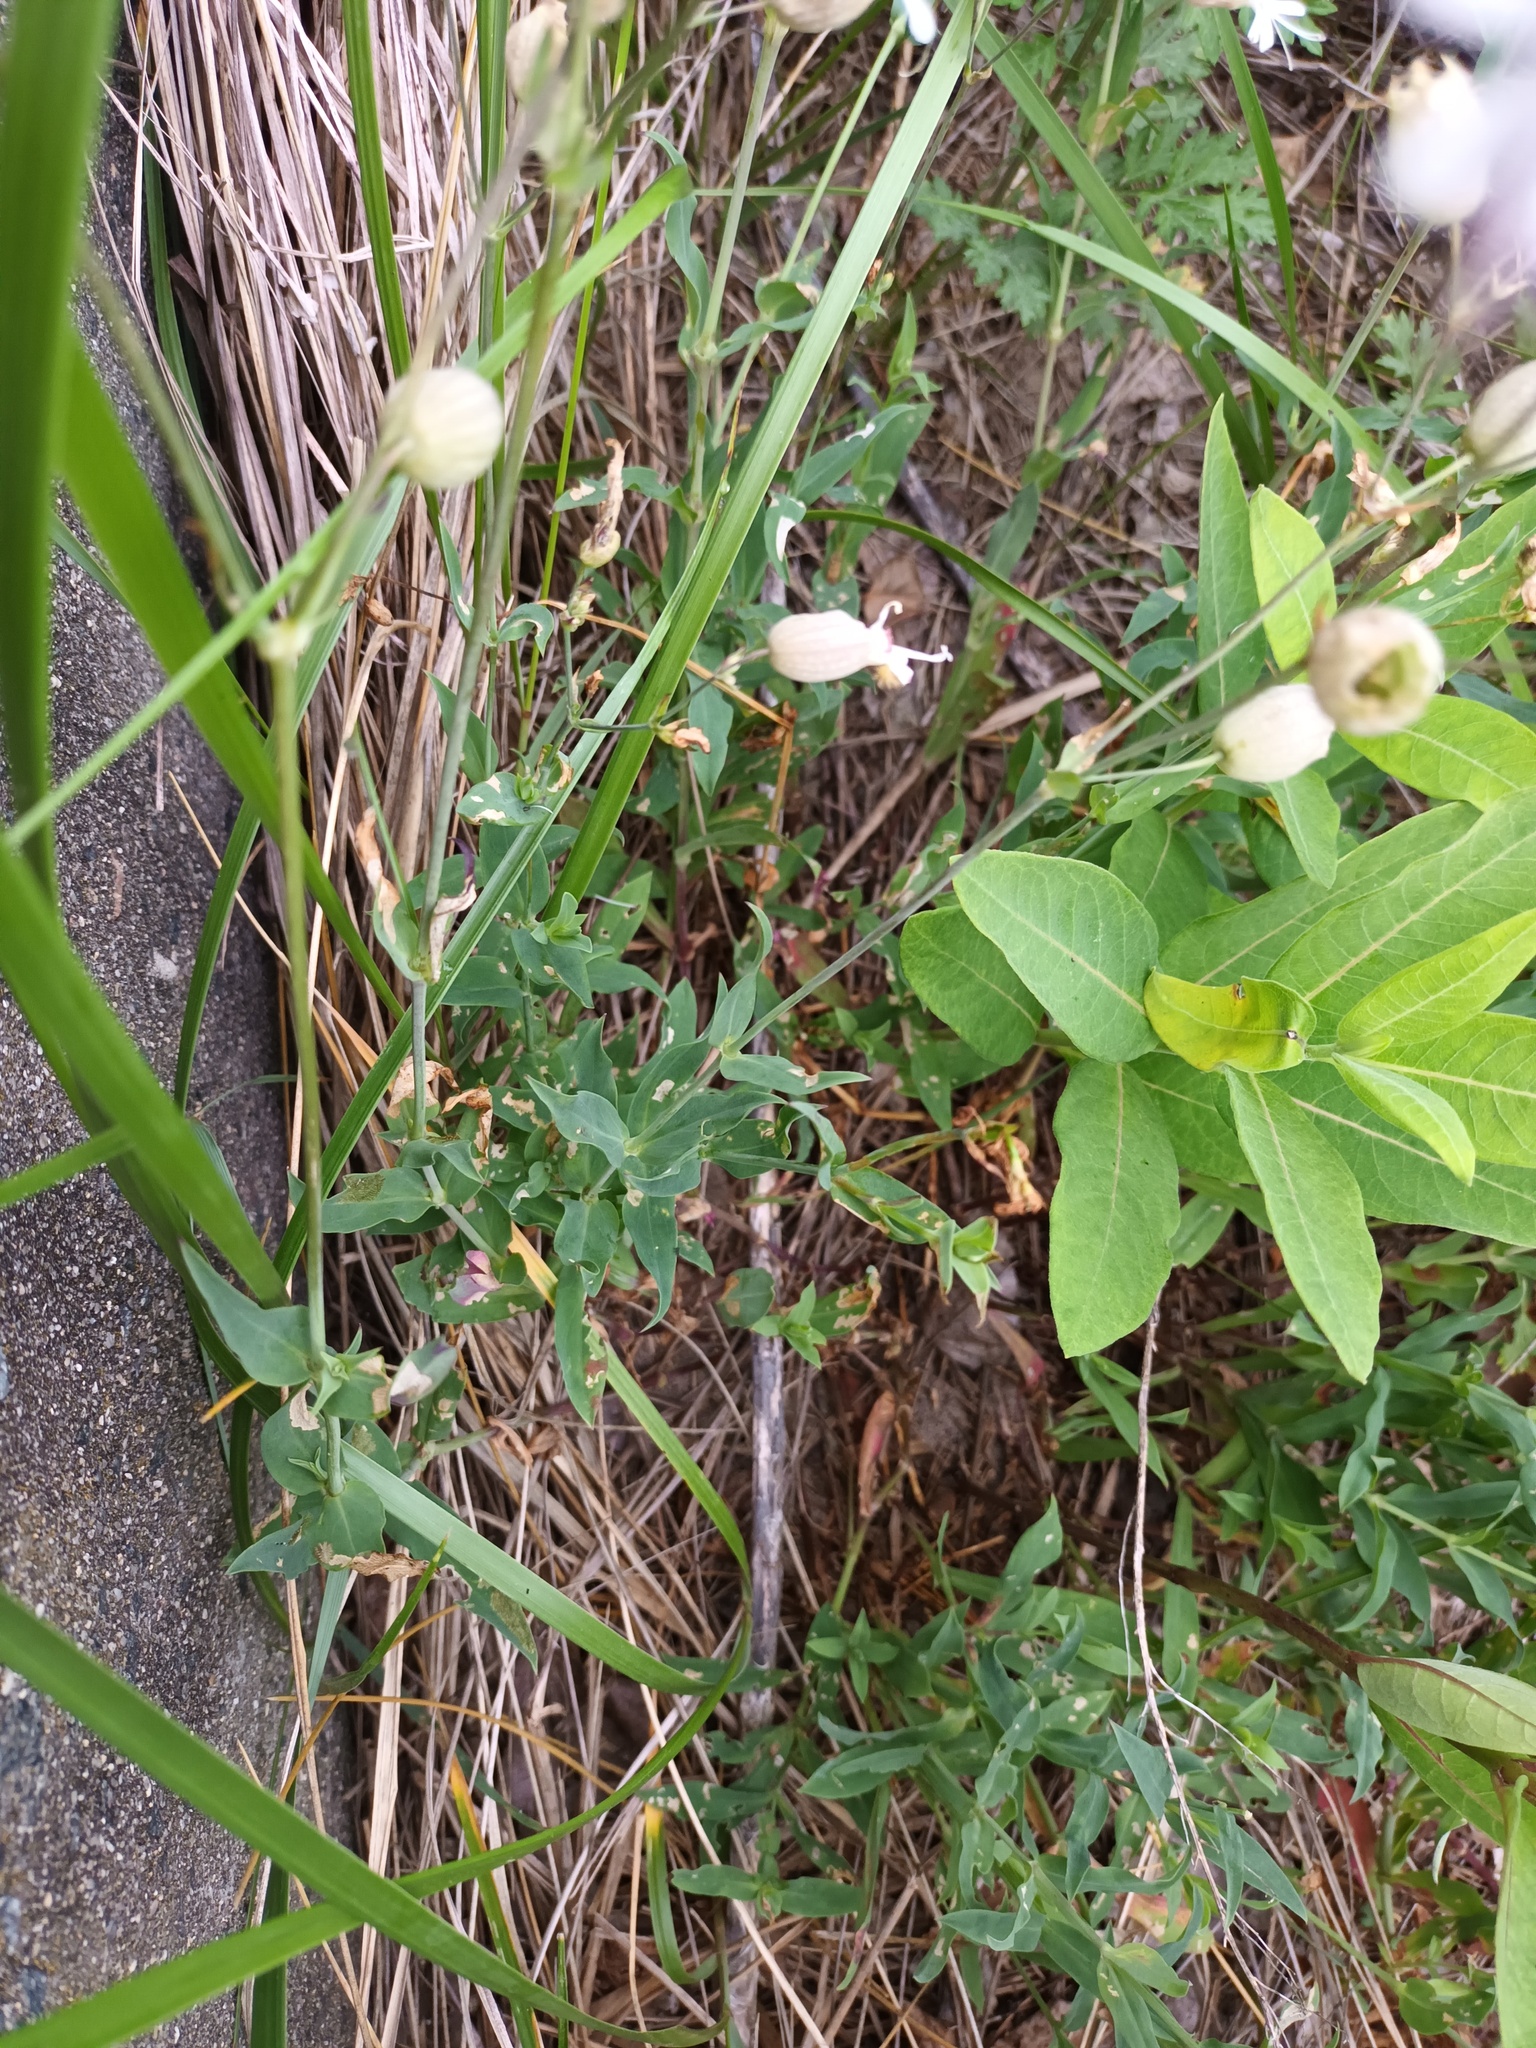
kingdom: Plantae
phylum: Tracheophyta
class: Magnoliopsida
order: Caryophyllales
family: Caryophyllaceae
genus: Silene
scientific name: Silene vulgaris
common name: Bladder campion
